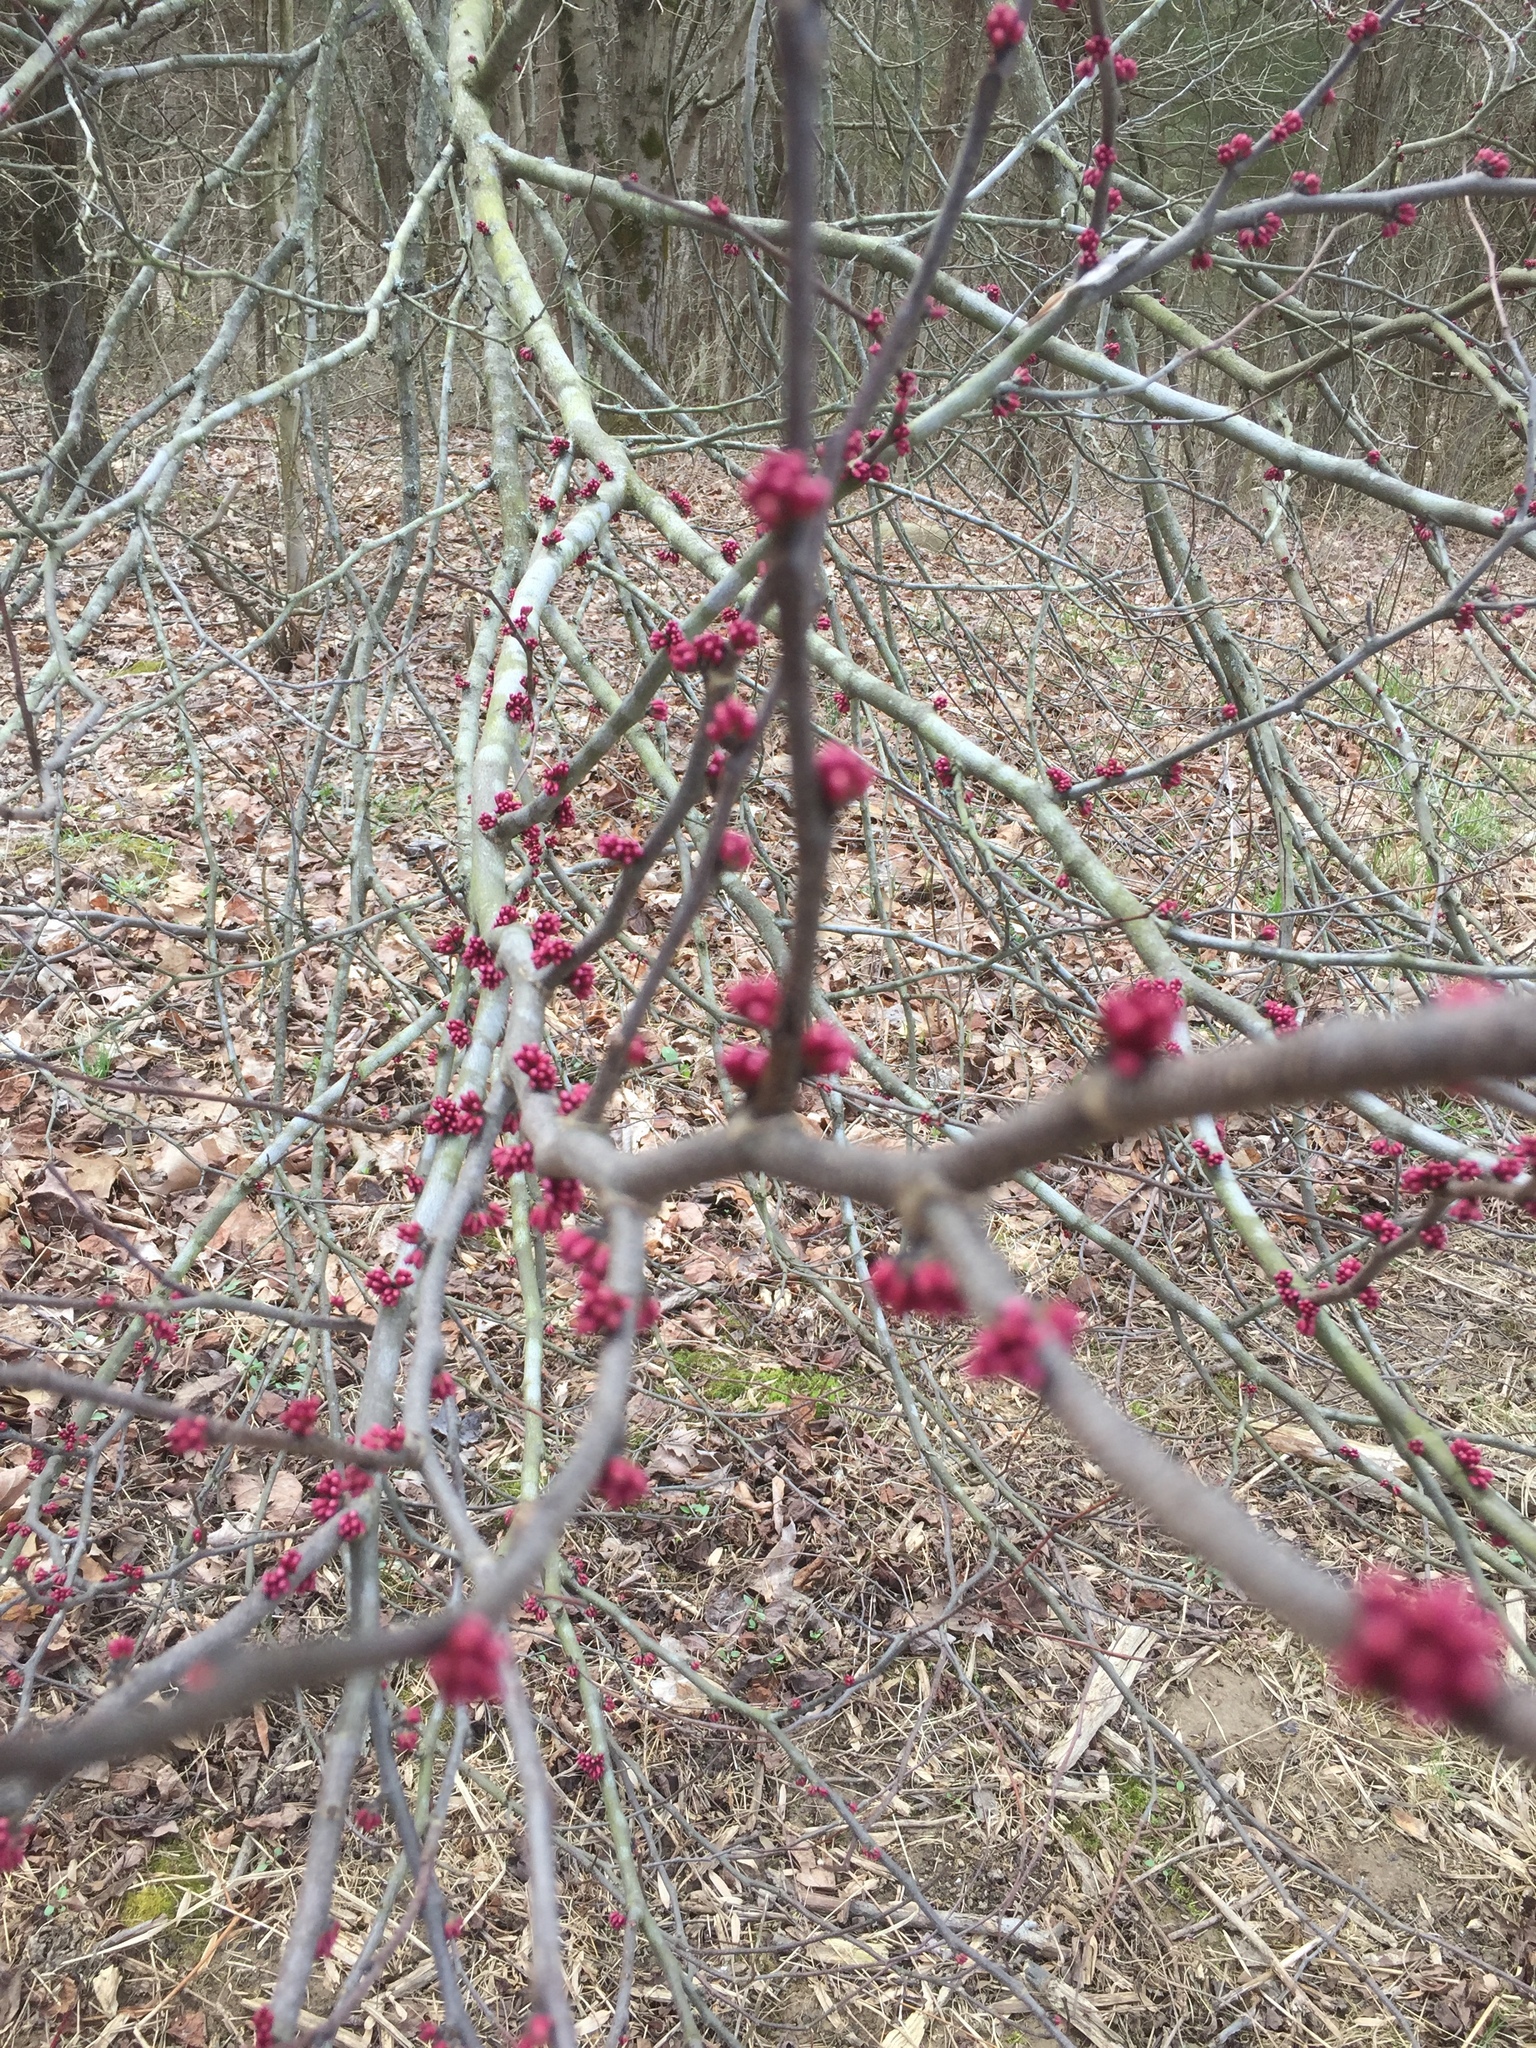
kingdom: Plantae
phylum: Tracheophyta
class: Magnoliopsida
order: Fabales
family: Fabaceae
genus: Cercis
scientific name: Cercis canadensis
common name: Eastern redbud
